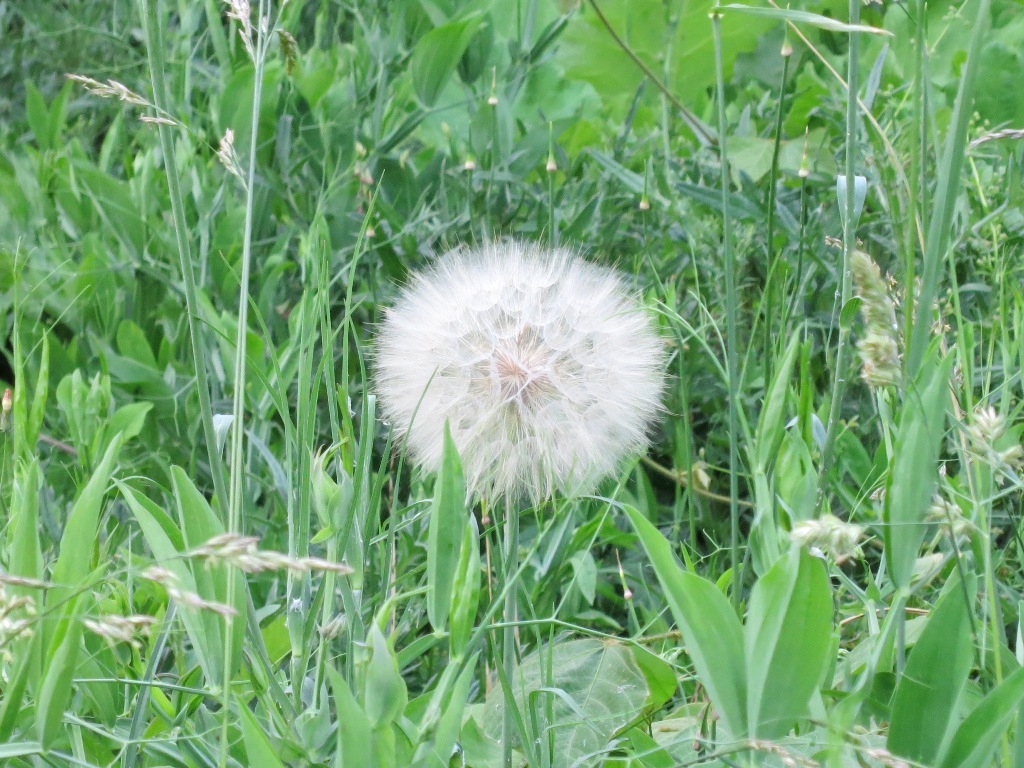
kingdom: Plantae
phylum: Tracheophyta
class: Magnoliopsida
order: Asterales
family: Asteraceae
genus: Tragopogon
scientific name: Tragopogon dubius
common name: Yellow salsify
